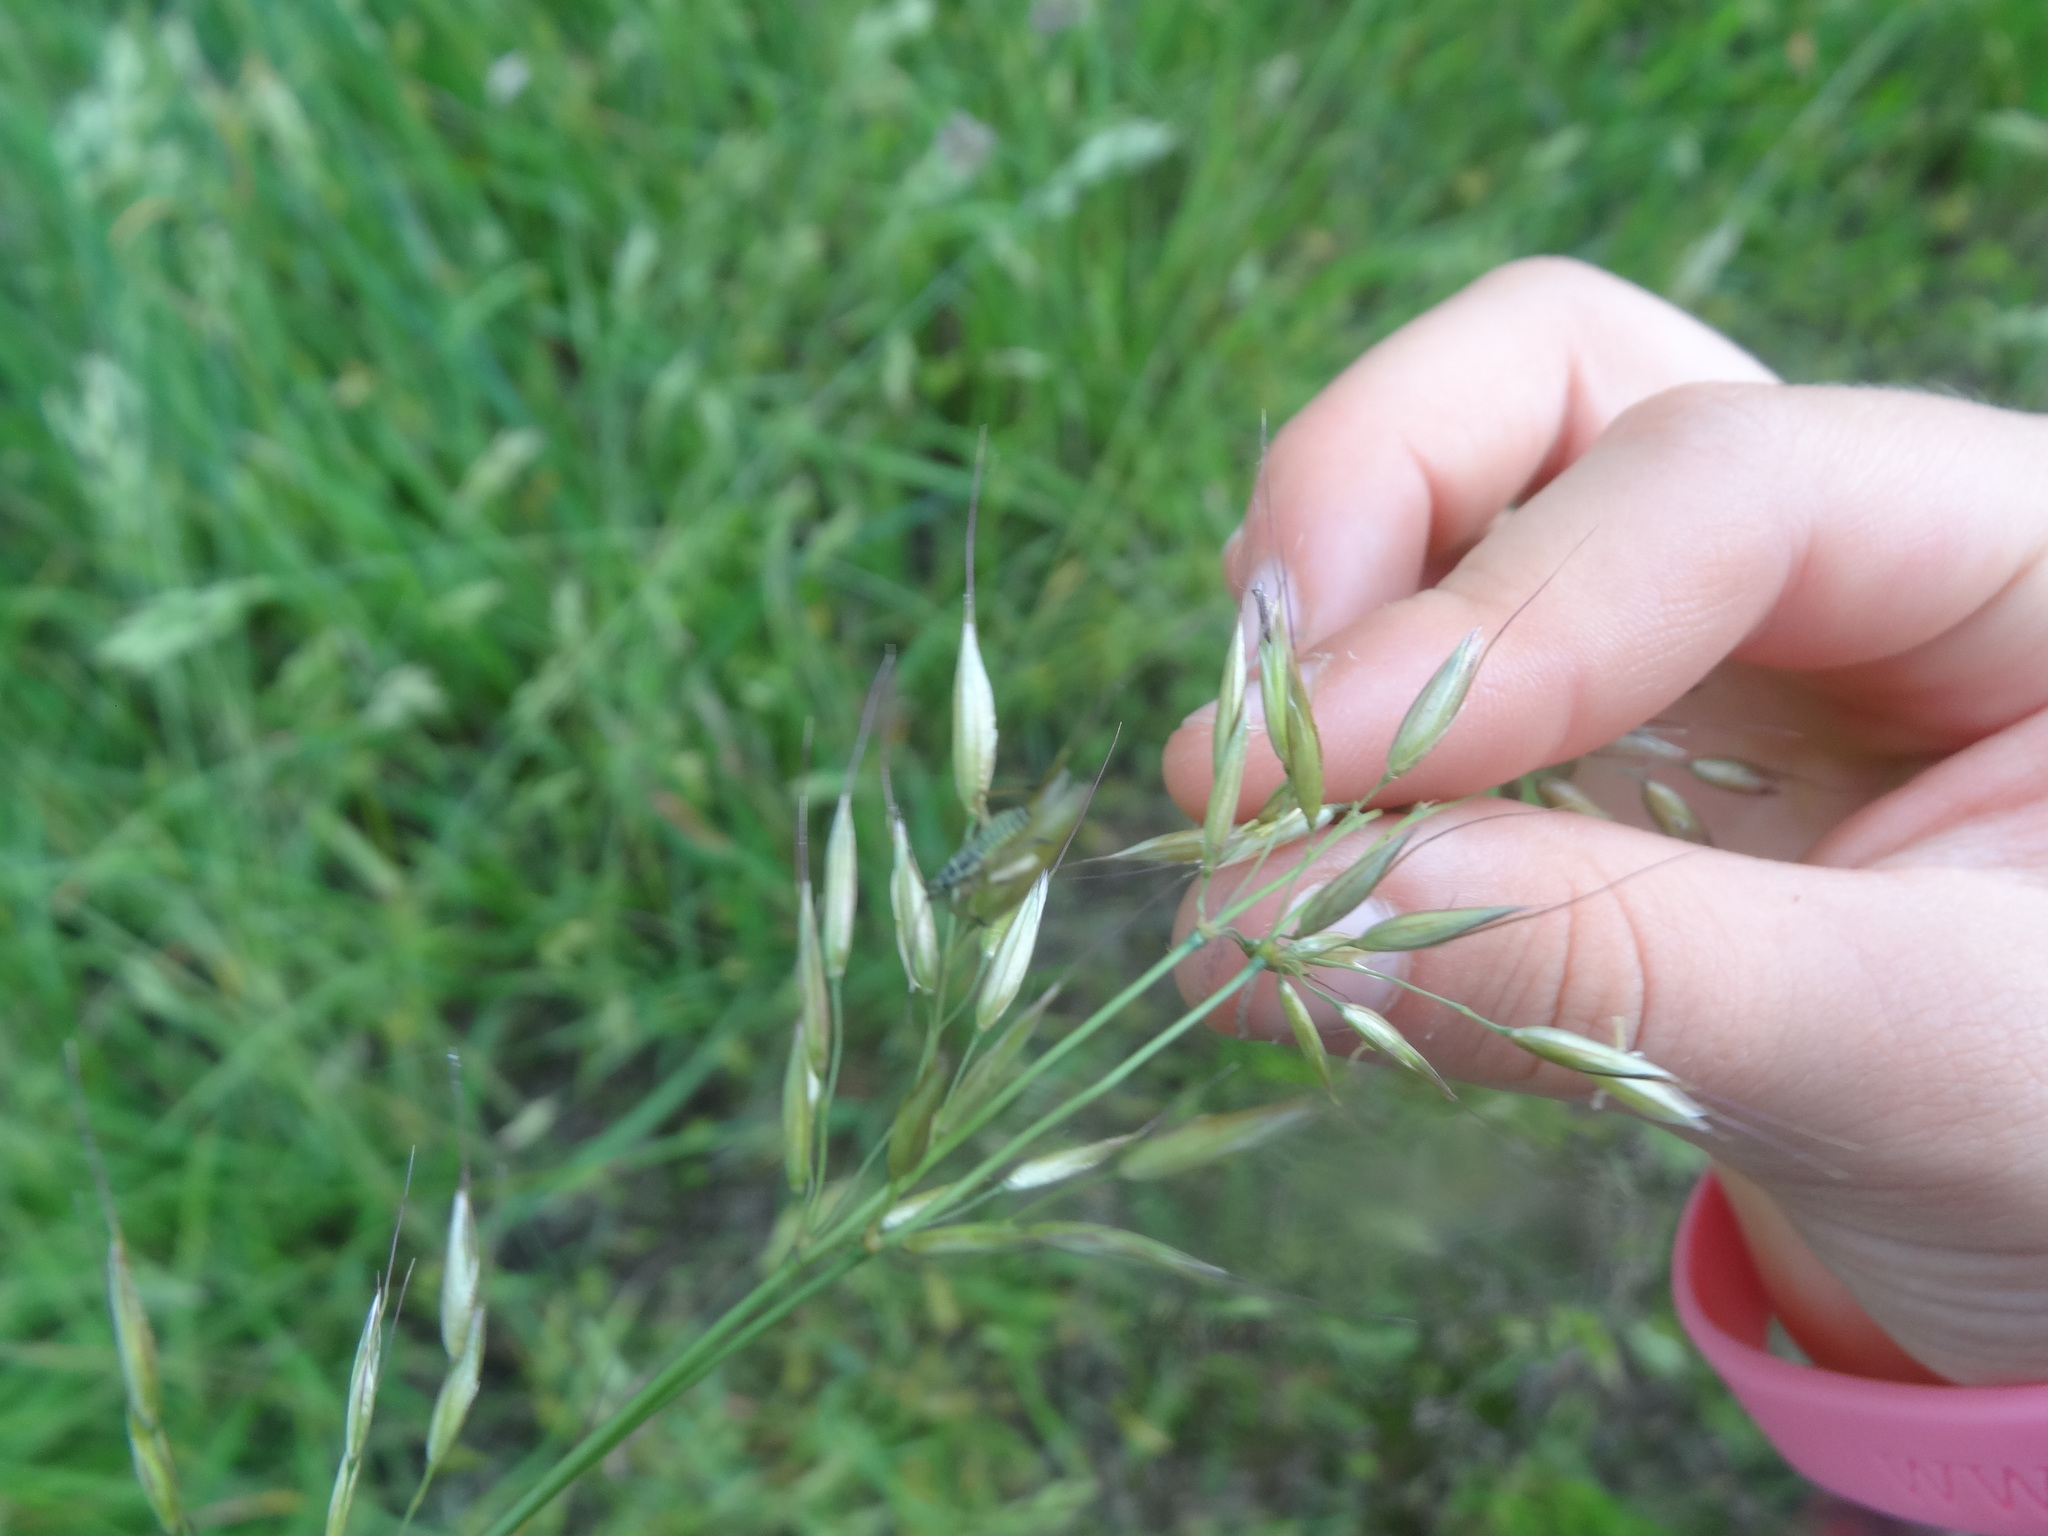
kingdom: Plantae
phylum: Tracheophyta
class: Liliopsida
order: Poales
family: Poaceae
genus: Arrhenatherum
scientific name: Arrhenatherum elatius
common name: Tall oatgrass
